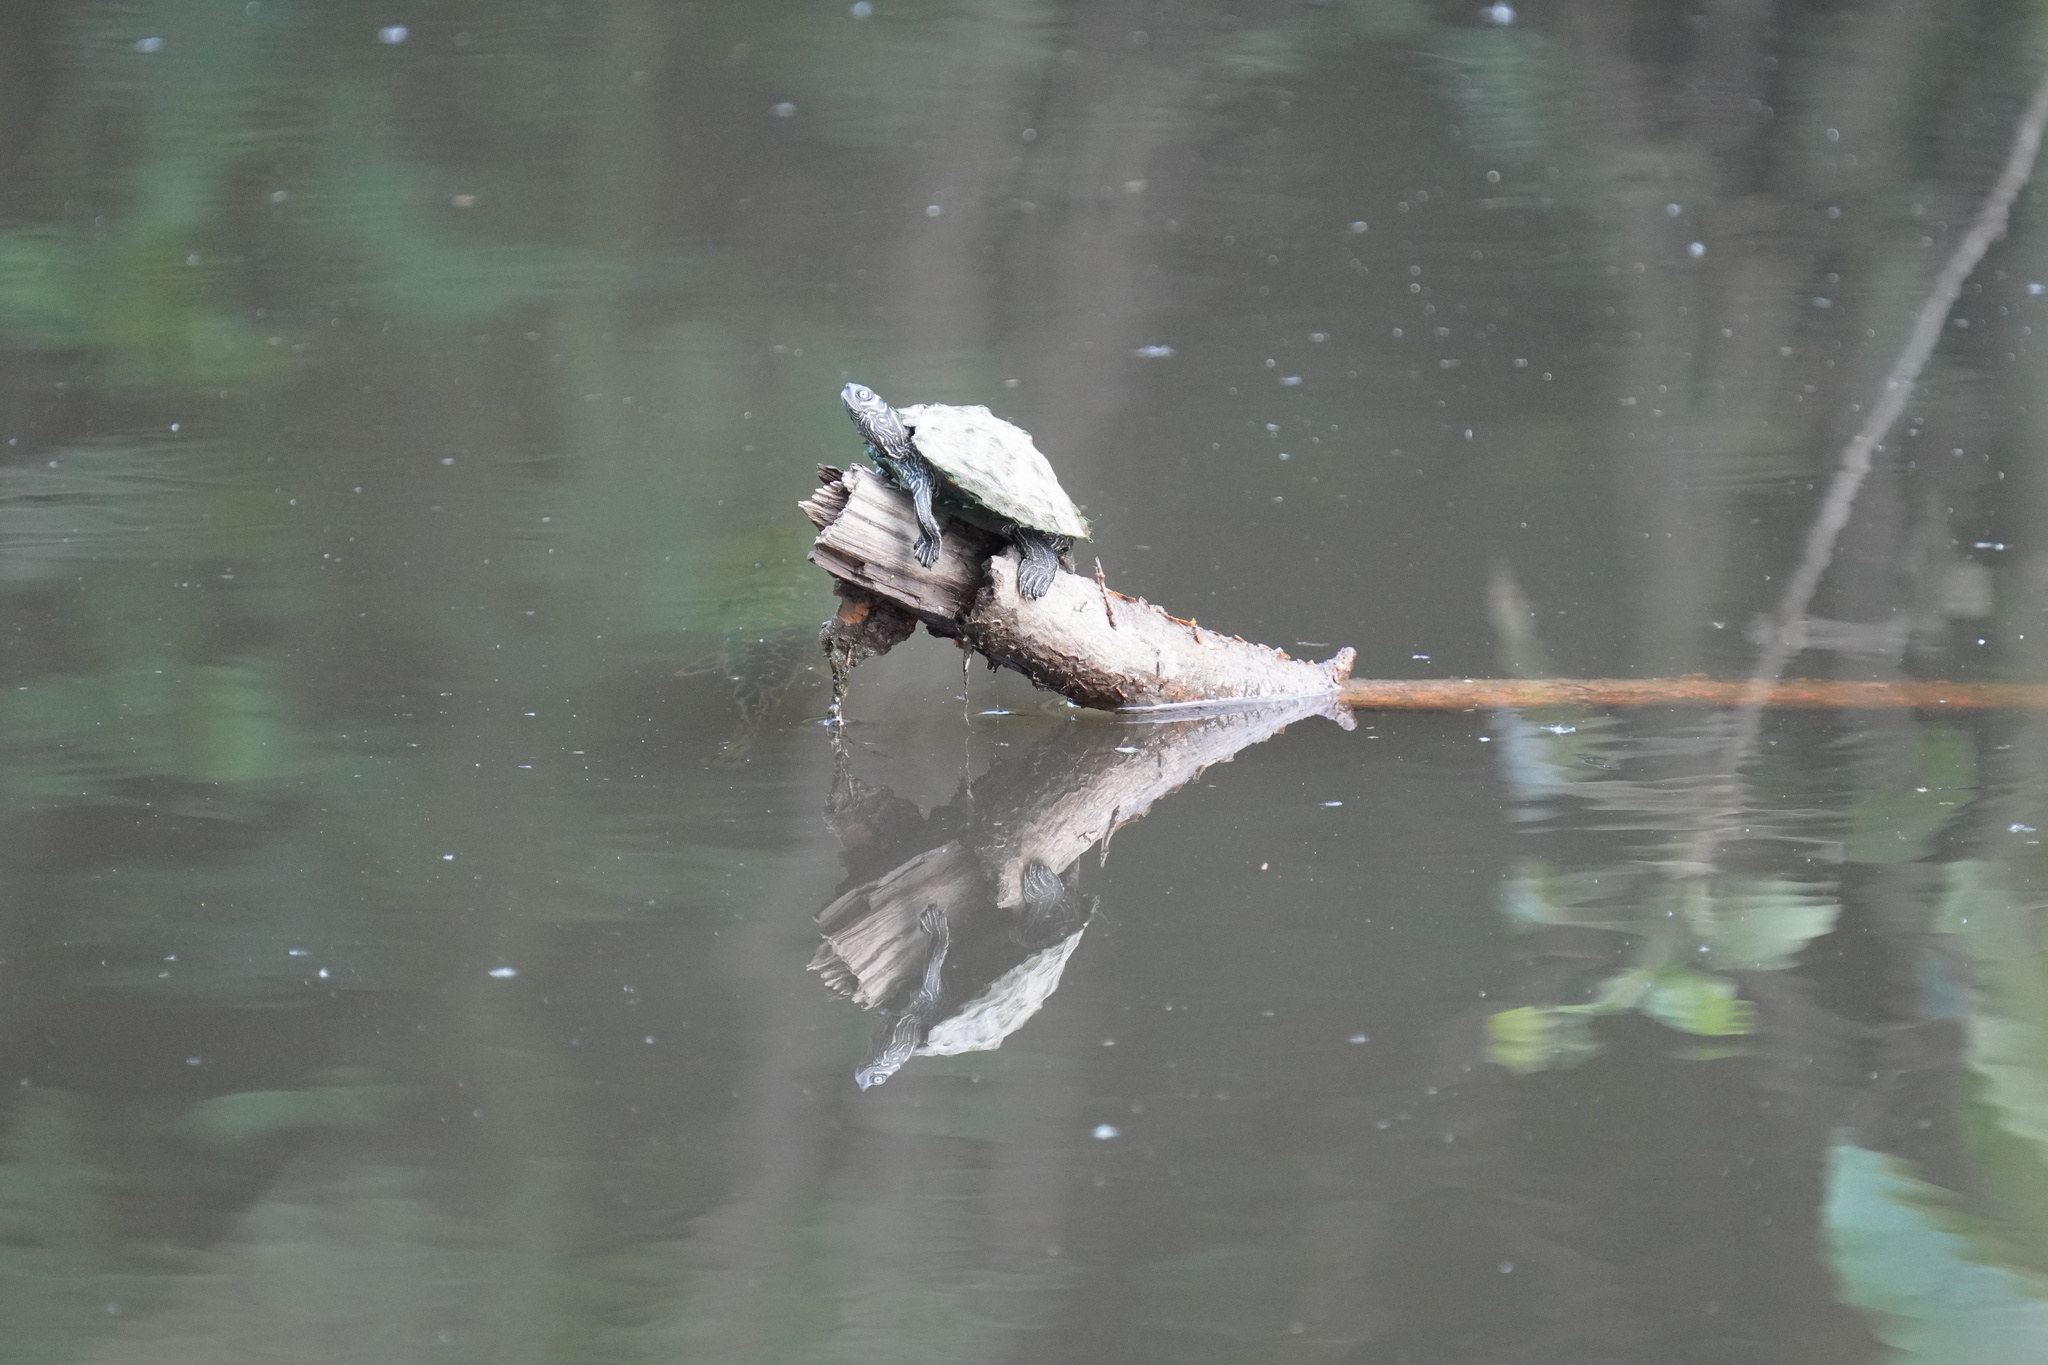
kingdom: Animalia
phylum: Chordata
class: Testudines
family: Emydidae
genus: Graptemys
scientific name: Graptemys pseudogeographica
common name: False map turtle
